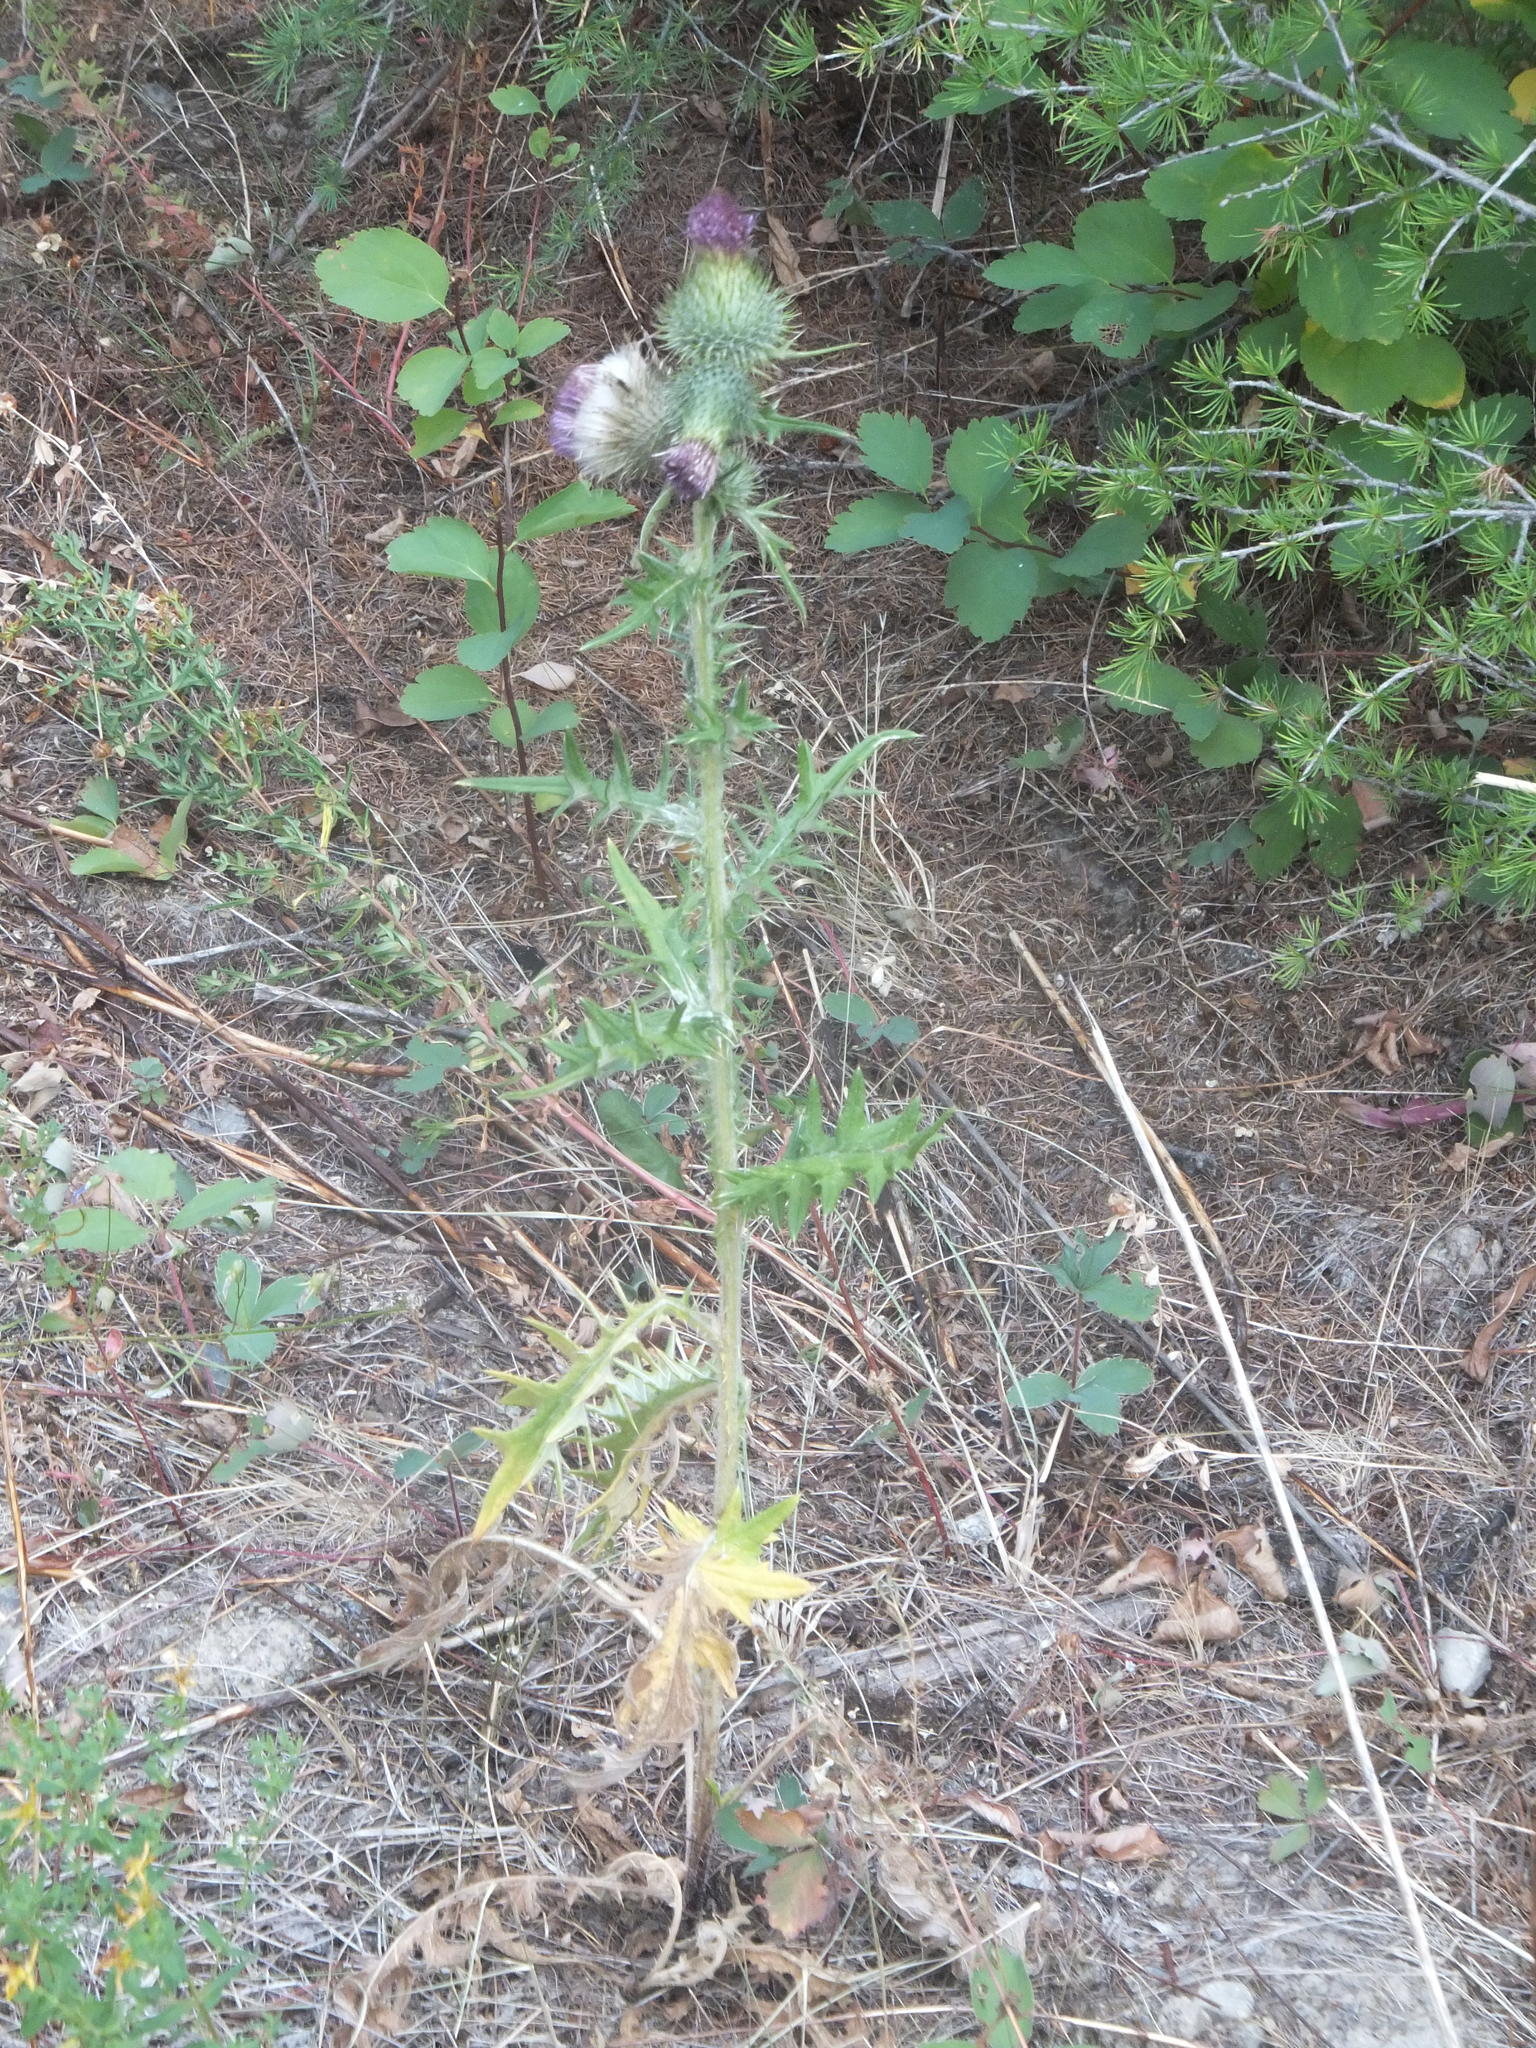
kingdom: Plantae
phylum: Tracheophyta
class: Magnoliopsida
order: Asterales
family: Asteraceae
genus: Cirsium
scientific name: Cirsium vulgare
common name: Bull thistle
